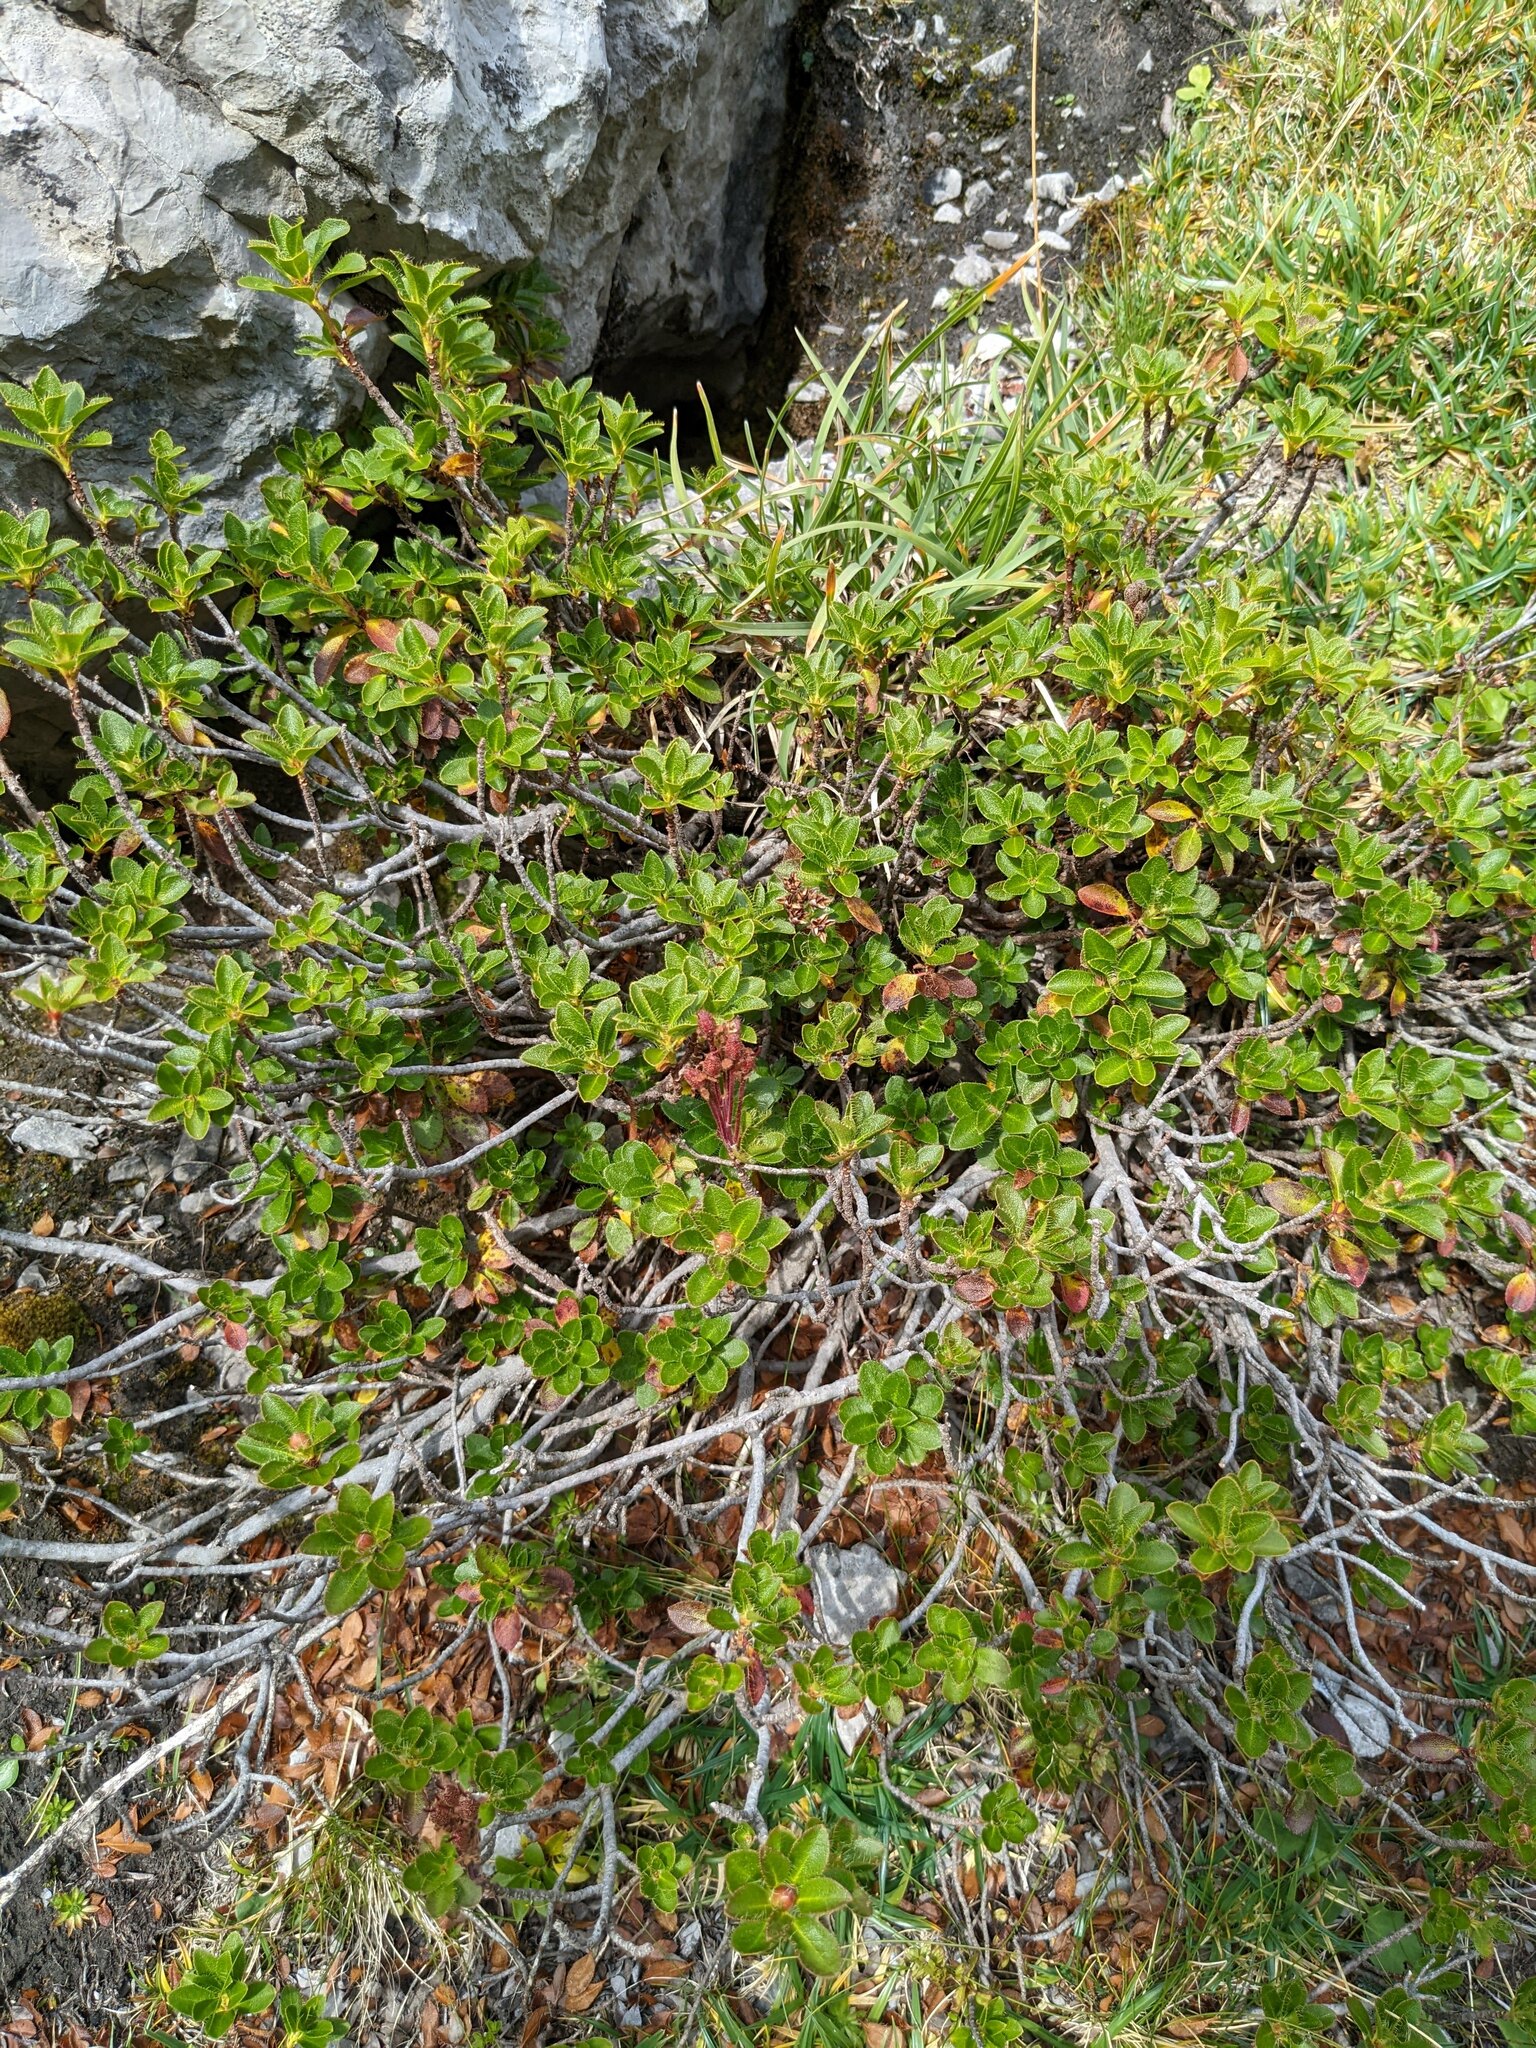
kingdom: Plantae
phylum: Tracheophyta
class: Magnoliopsida
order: Ericales
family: Ericaceae
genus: Rhododendron
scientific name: Rhododendron hirsutum
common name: Hairy alpenrose
